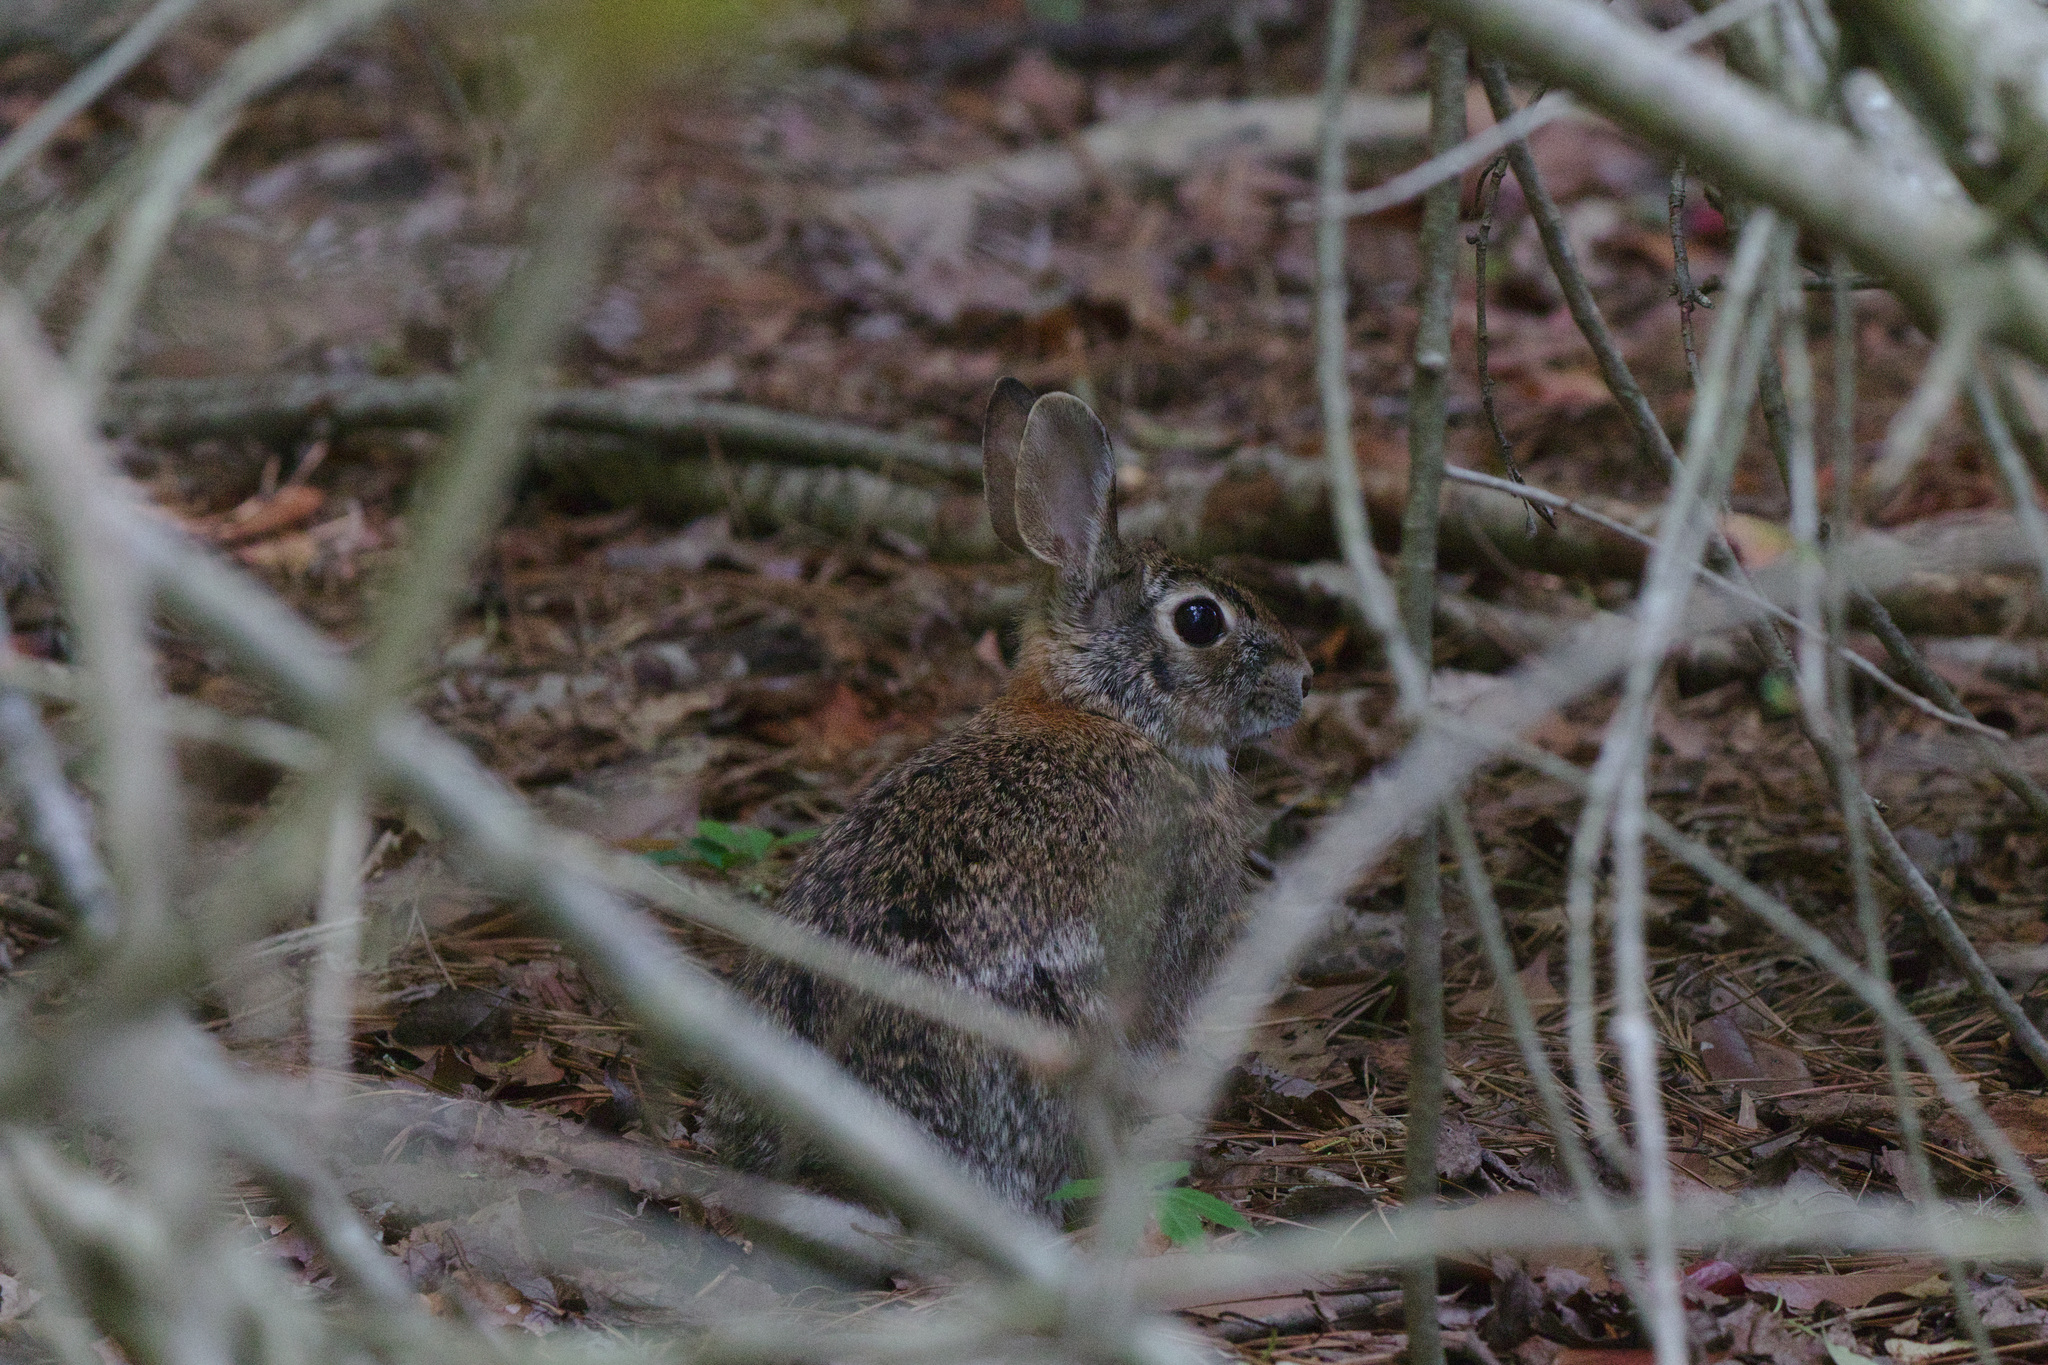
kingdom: Animalia
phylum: Chordata
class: Mammalia
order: Lagomorpha
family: Leporidae
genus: Sylvilagus
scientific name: Sylvilagus floridanus
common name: Eastern cottontail
